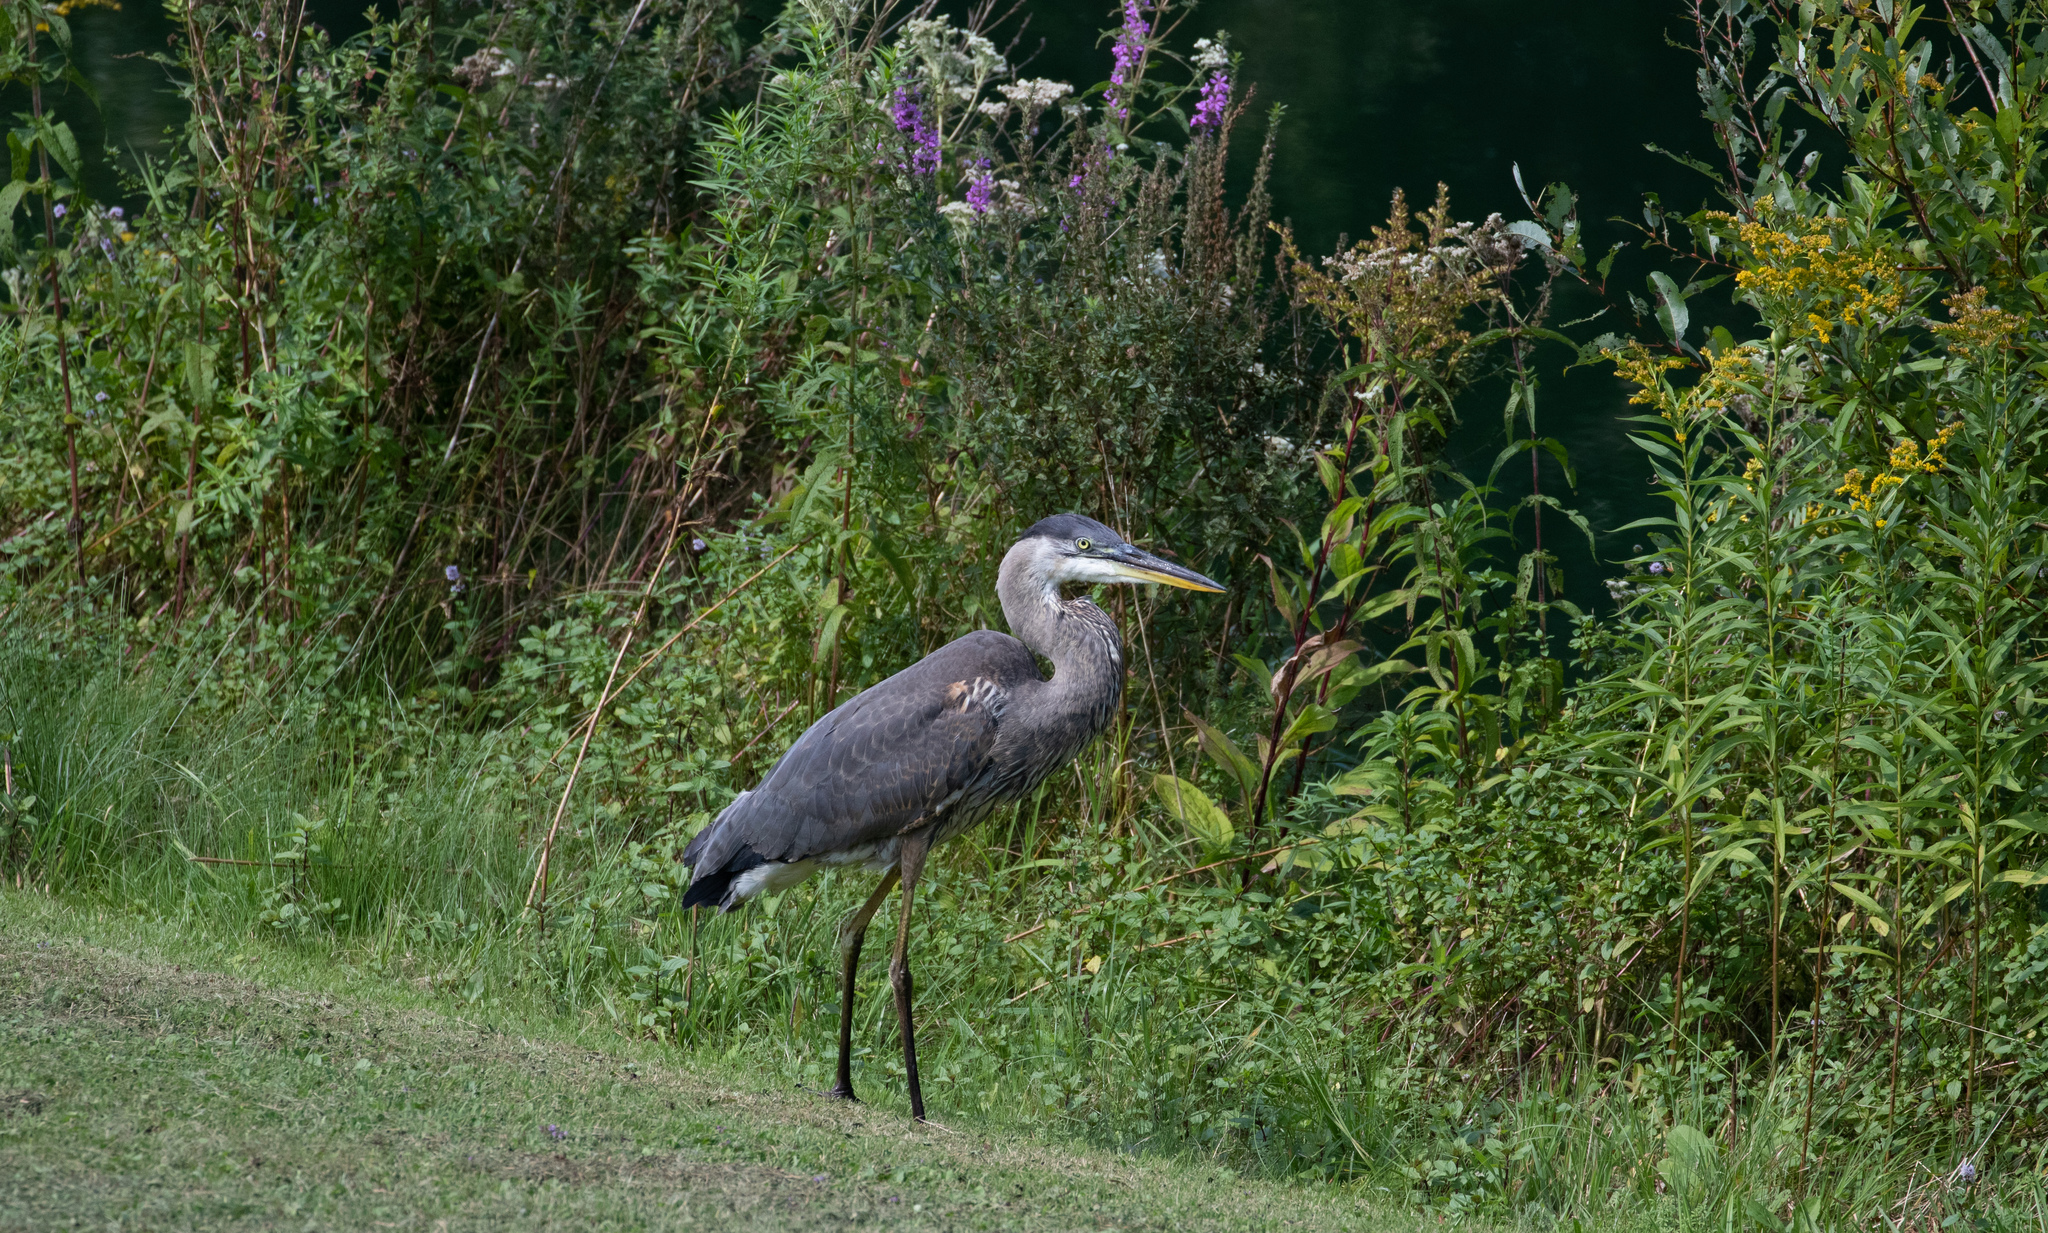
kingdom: Animalia
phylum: Chordata
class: Aves
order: Pelecaniformes
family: Ardeidae
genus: Ardea
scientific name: Ardea herodias
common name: Great blue heron
